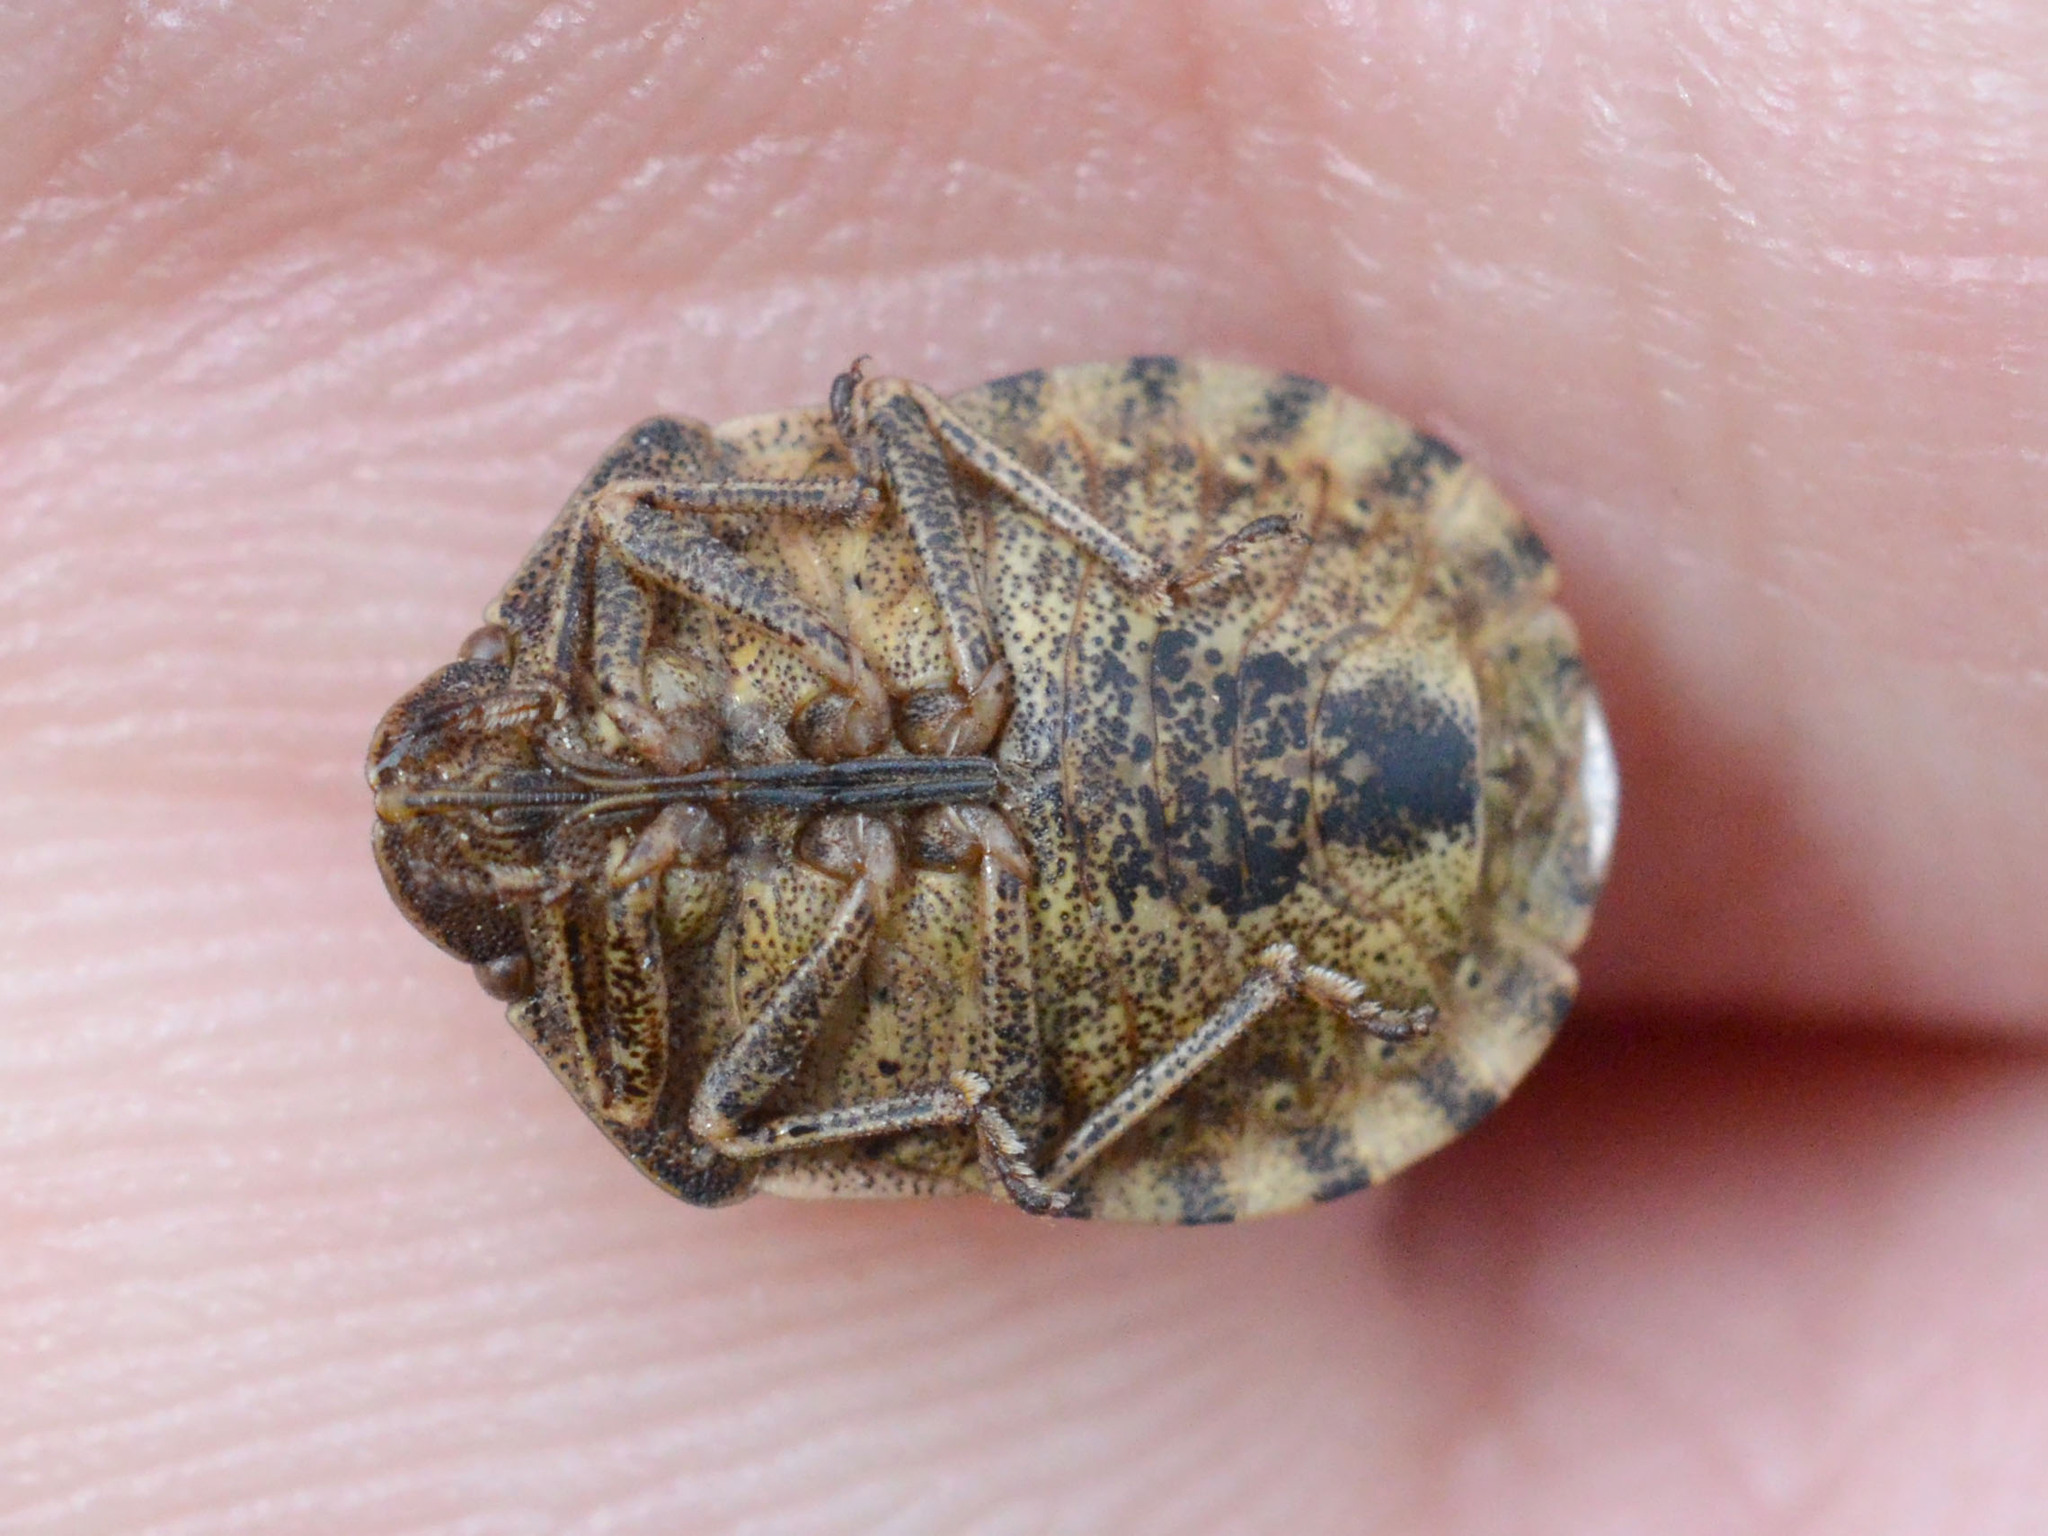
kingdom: Animalia
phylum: Arthropoda
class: Insecta
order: Hemiptera
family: Scutelleridae
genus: Eurygaster
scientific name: Eurygaster testudinaria
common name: Tortoise bug
